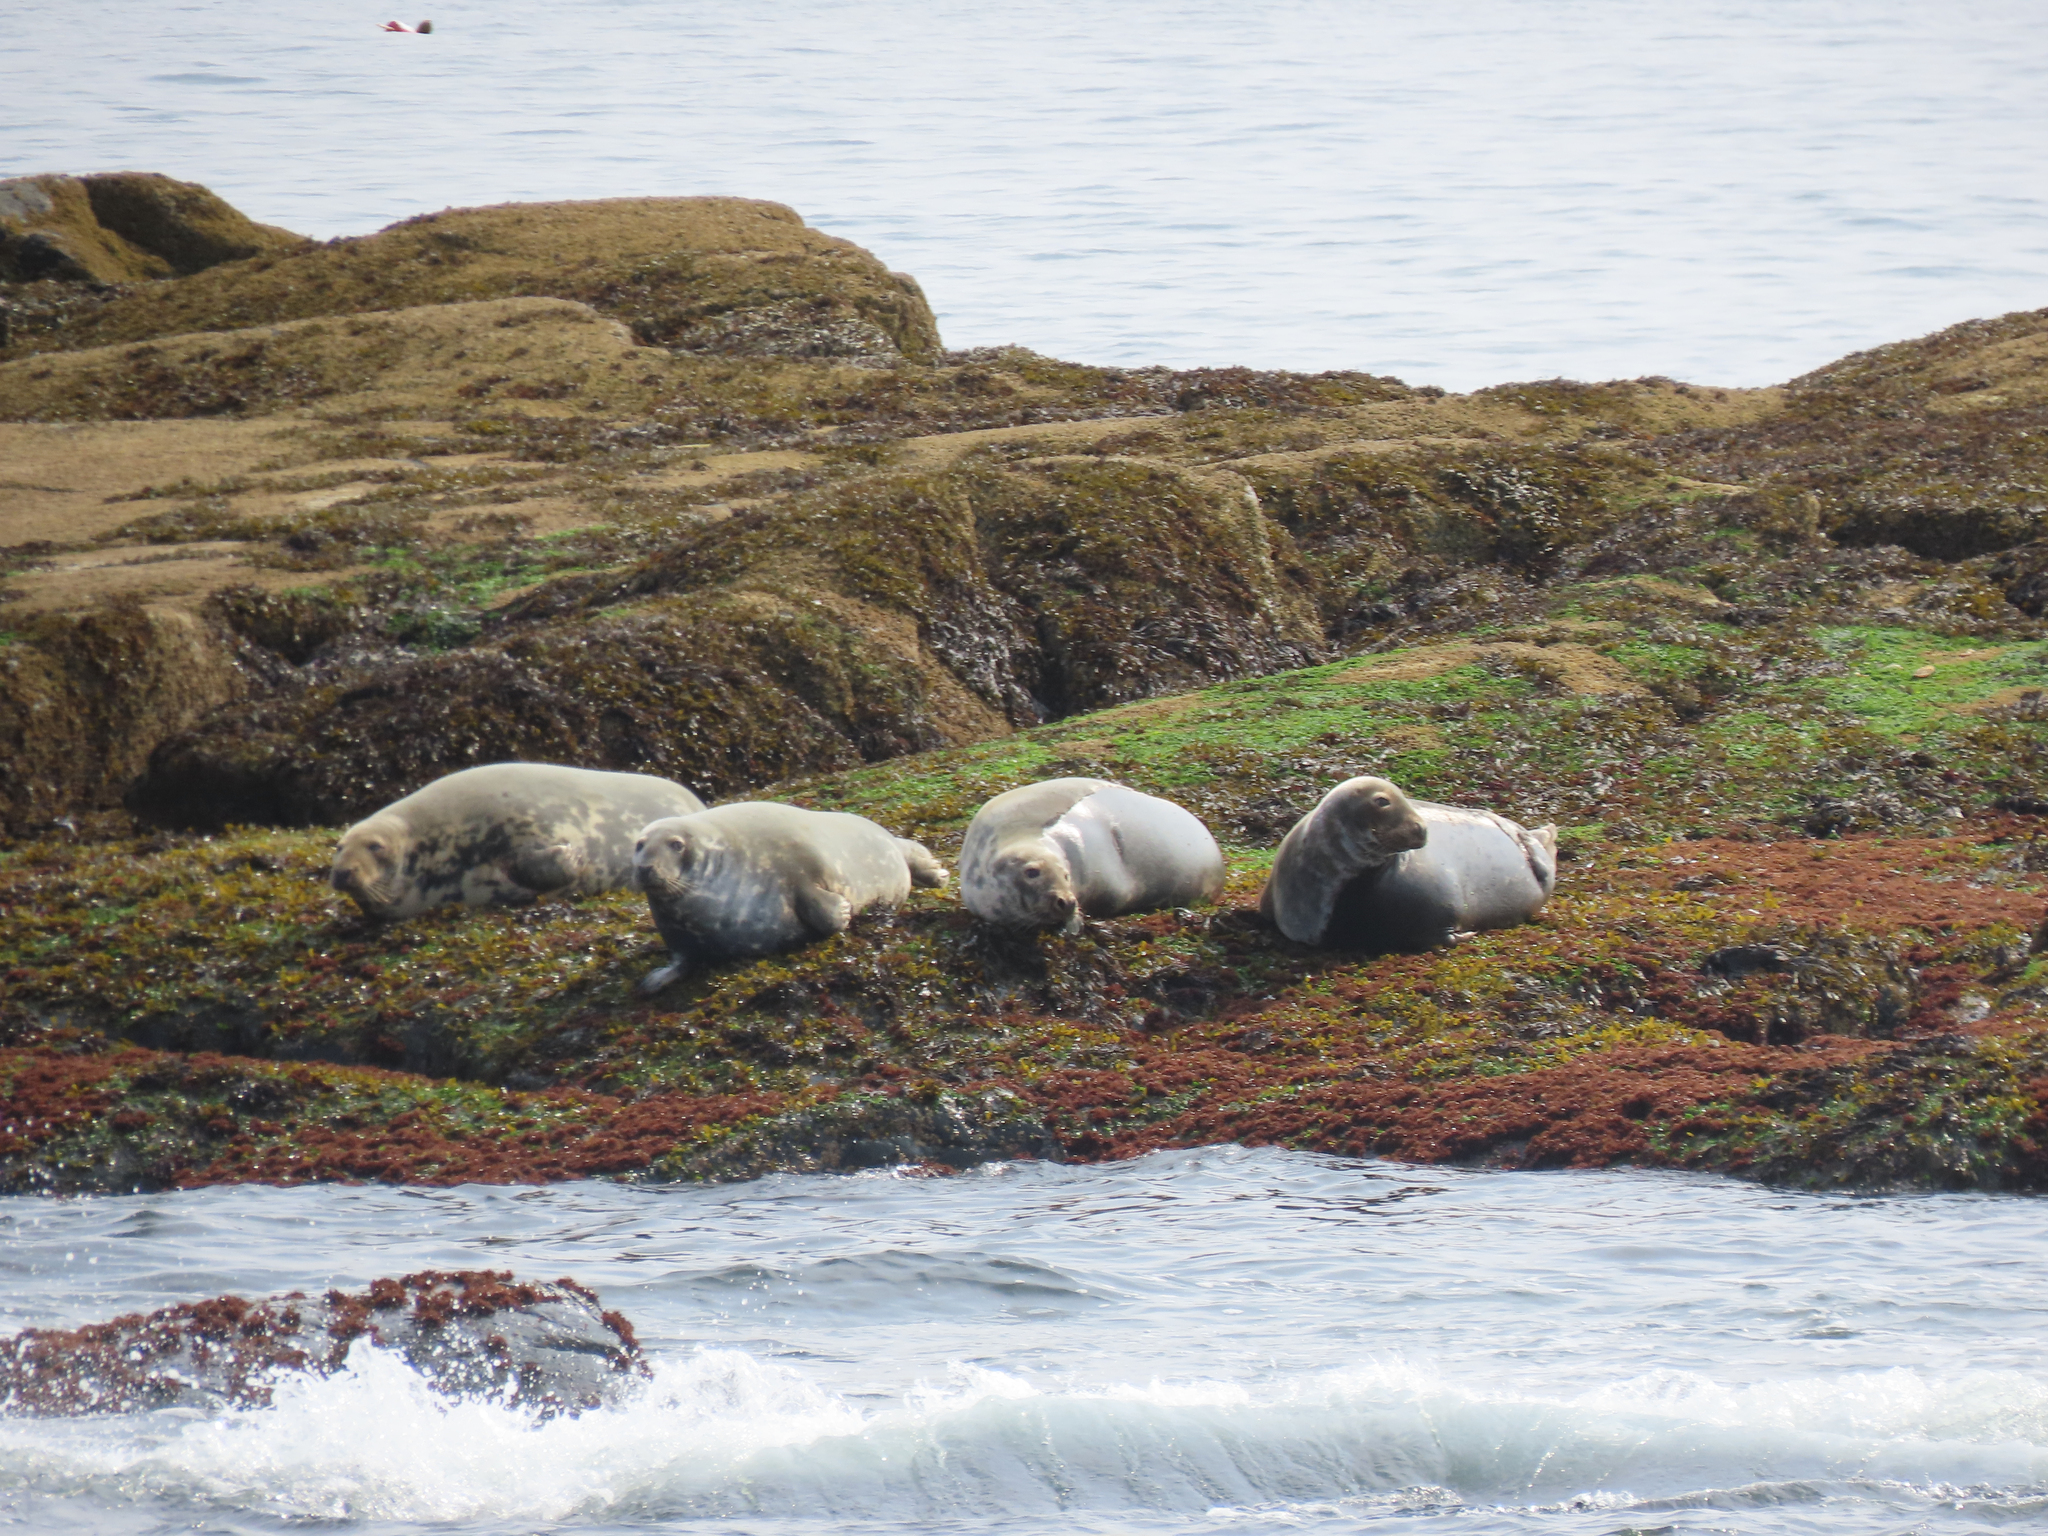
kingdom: Animalia
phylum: Chordata
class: Mammalia
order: Carnivora
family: Phocidae
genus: Halichoerus
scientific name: Halichoerus grypus
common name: Grey seal
